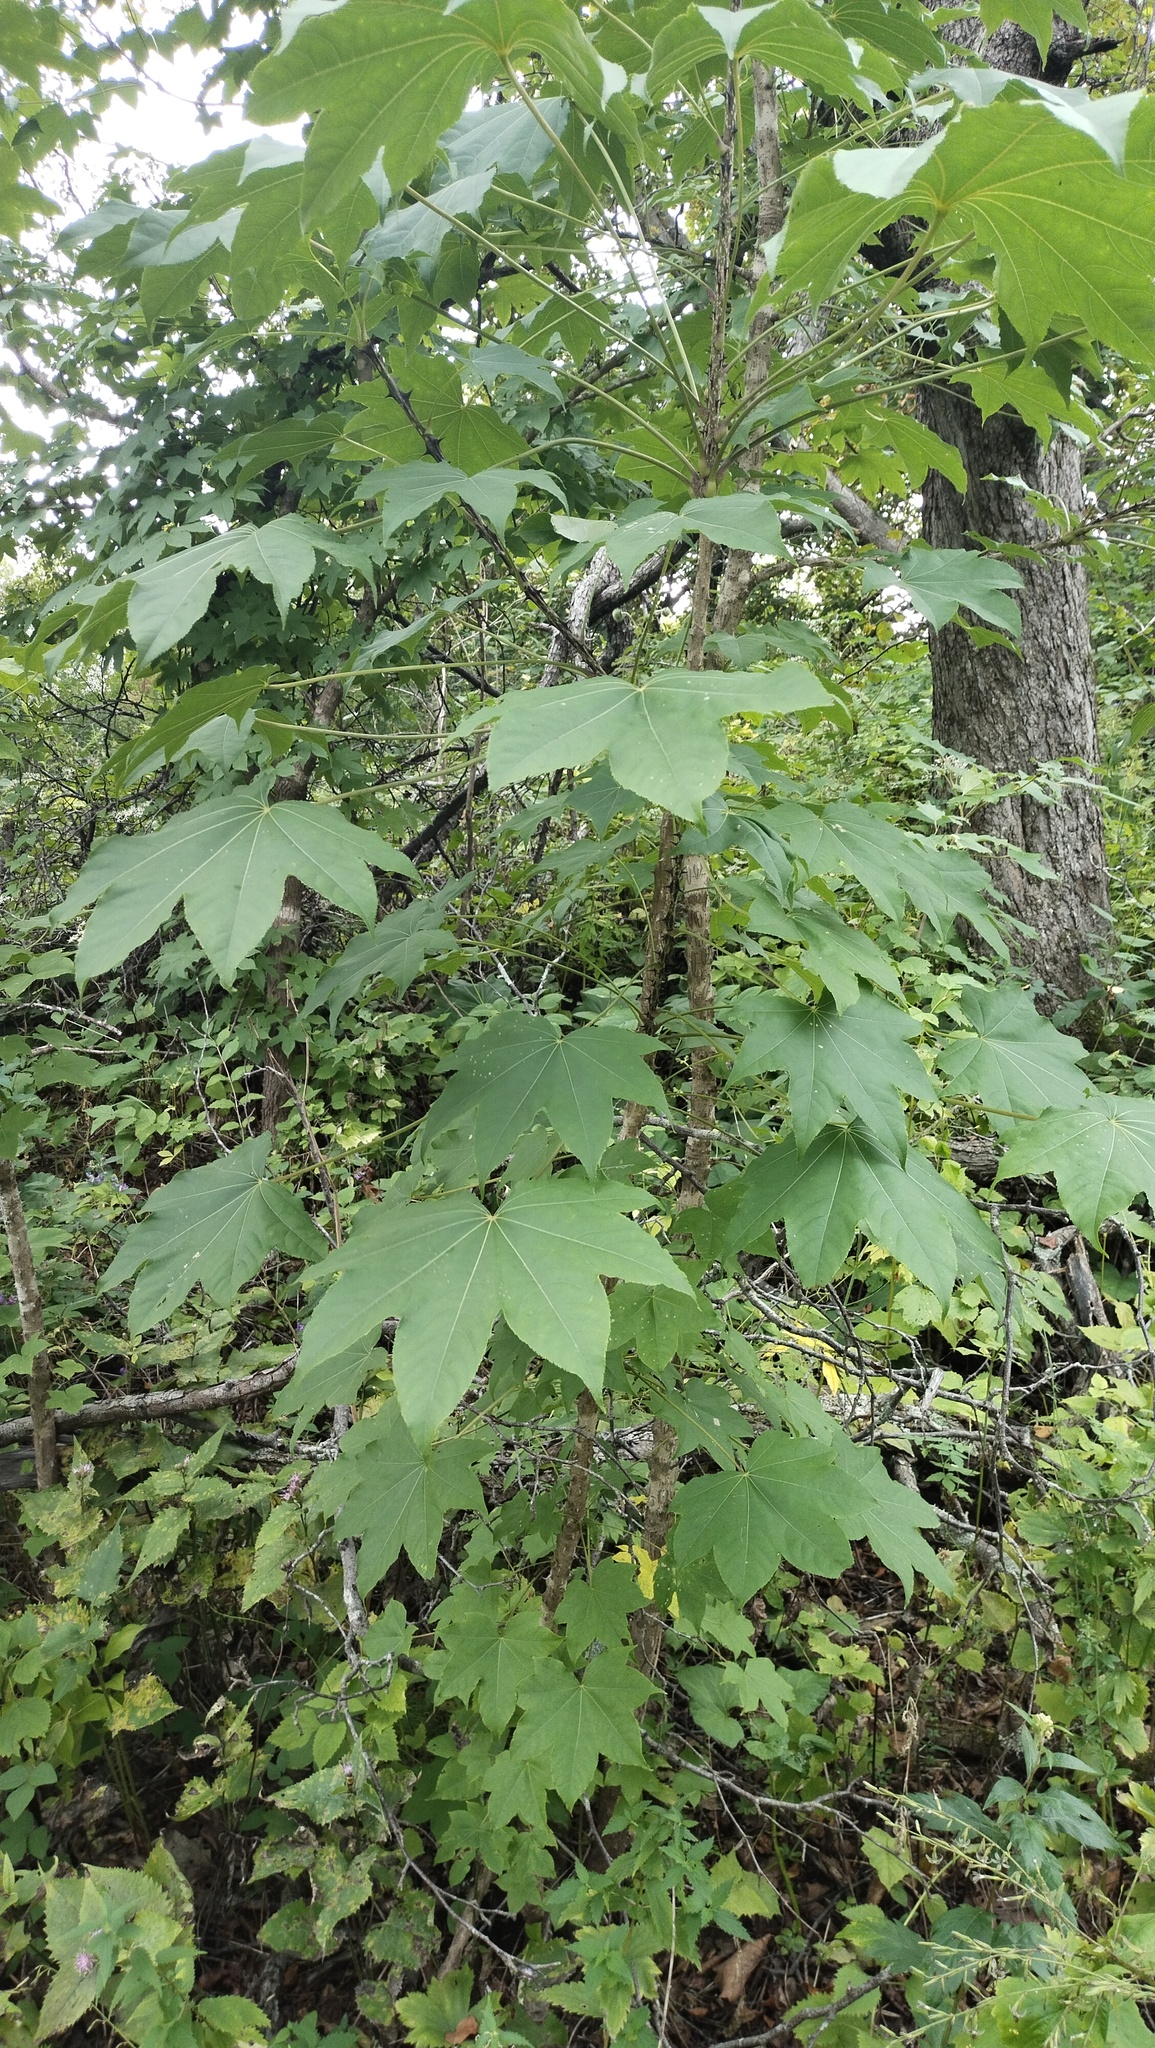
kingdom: Plantae
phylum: Tracheophyta
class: Magnoliopsida
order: Apiales
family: Araliaceae
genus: Kalopanax
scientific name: Kalopanax septemlobus
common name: Castor aralia
